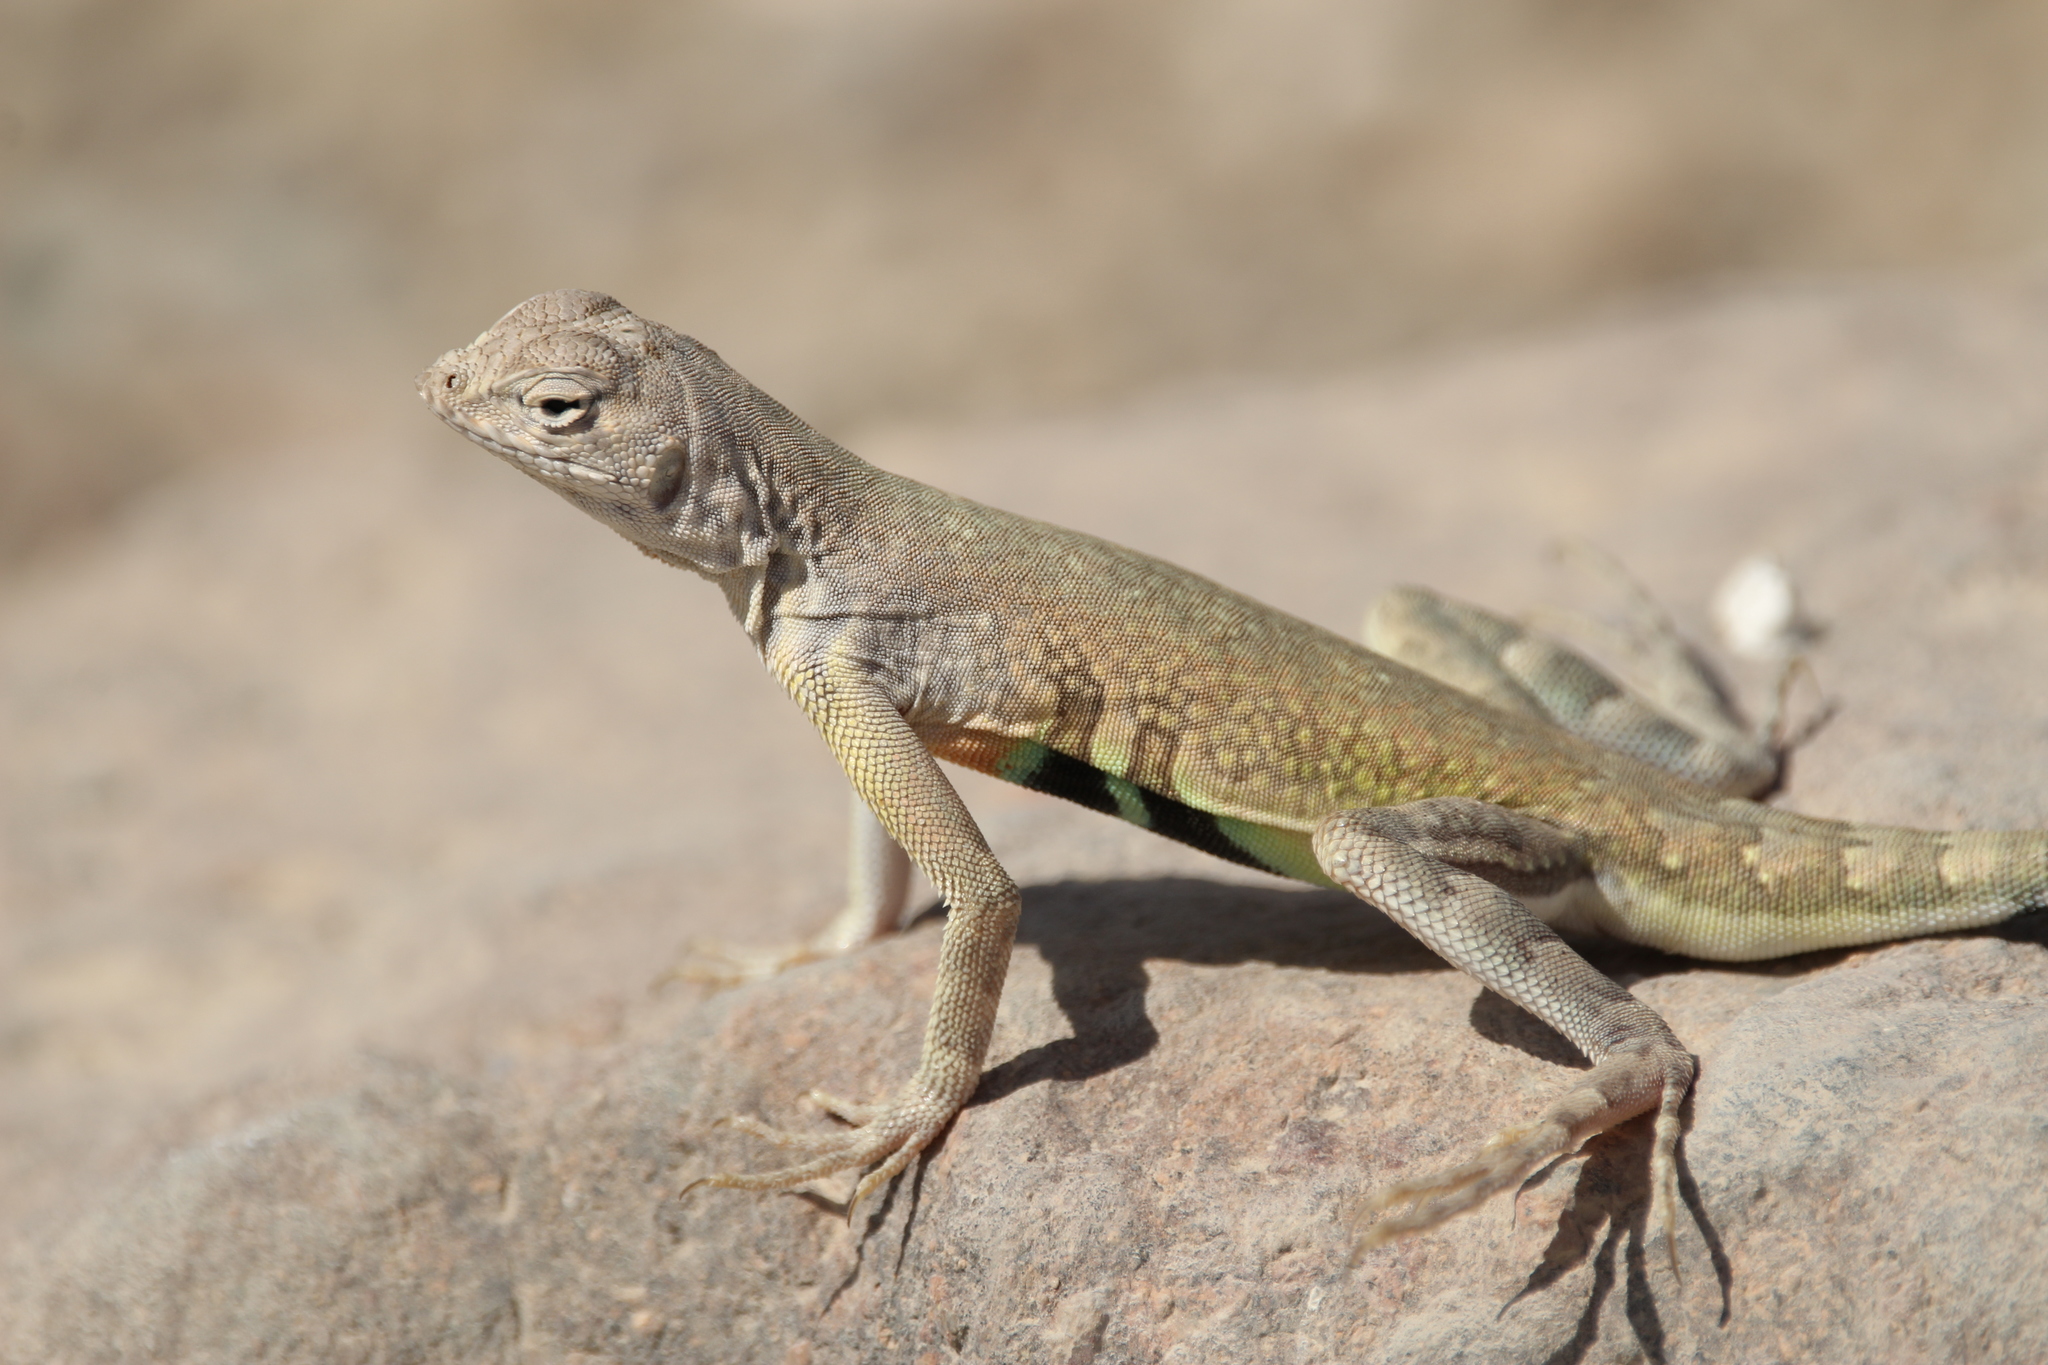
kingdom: Animalia
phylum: Chordata
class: Squamata
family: Phrynosomatidae
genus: Callisaurus
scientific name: Callisaurus draconoides
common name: Zebra-tailed lizard
